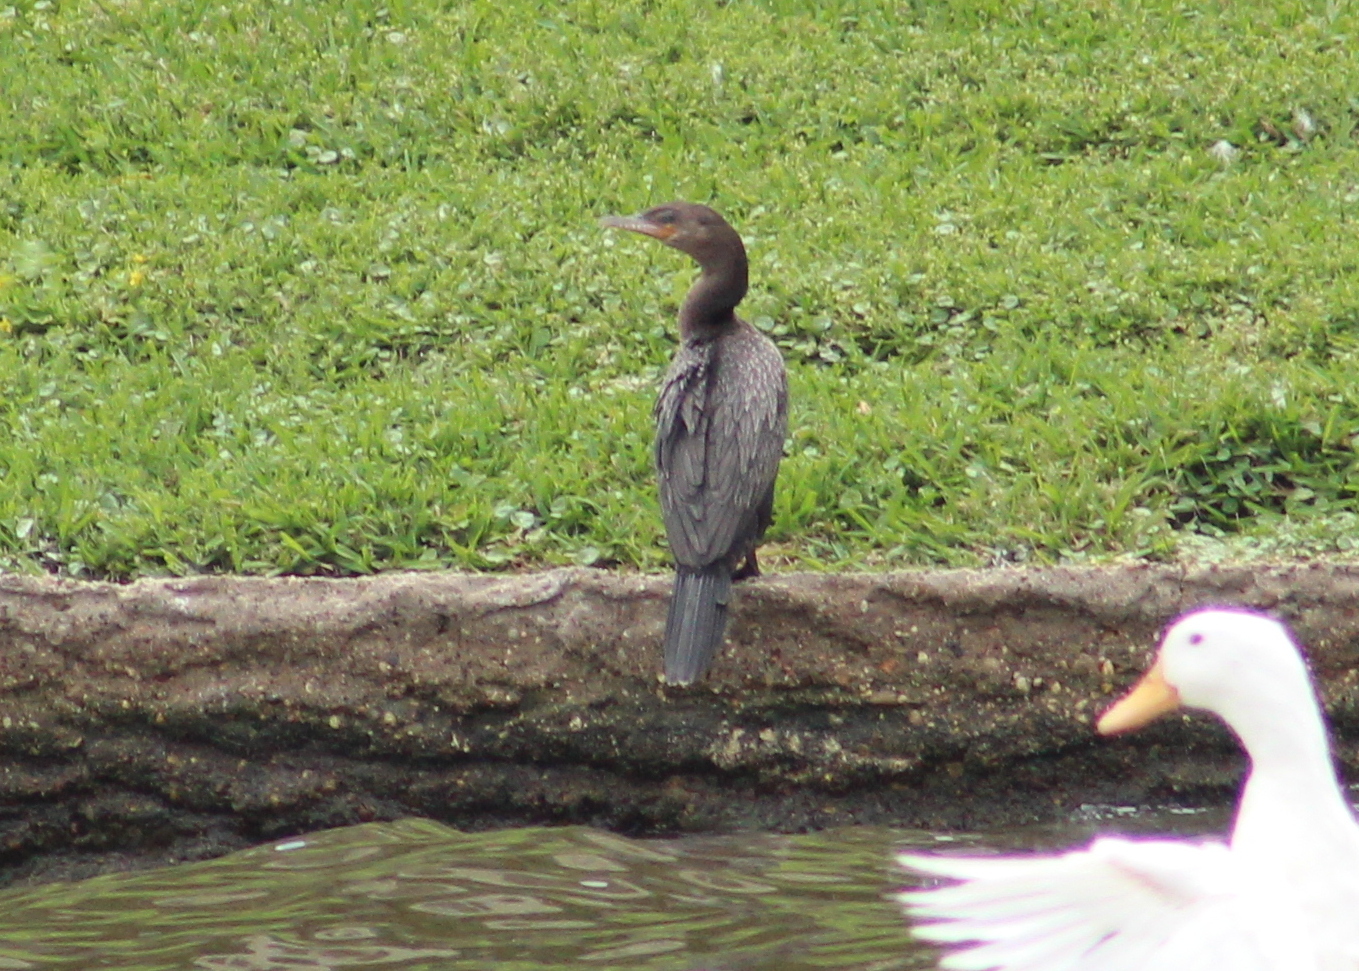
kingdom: Animalia
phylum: Chordata
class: Aves
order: Suliformes
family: Phalacrocoracidae
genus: Phalacrocorax
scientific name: Phalacrocorax brasilianus
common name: Neotropic cormorant
